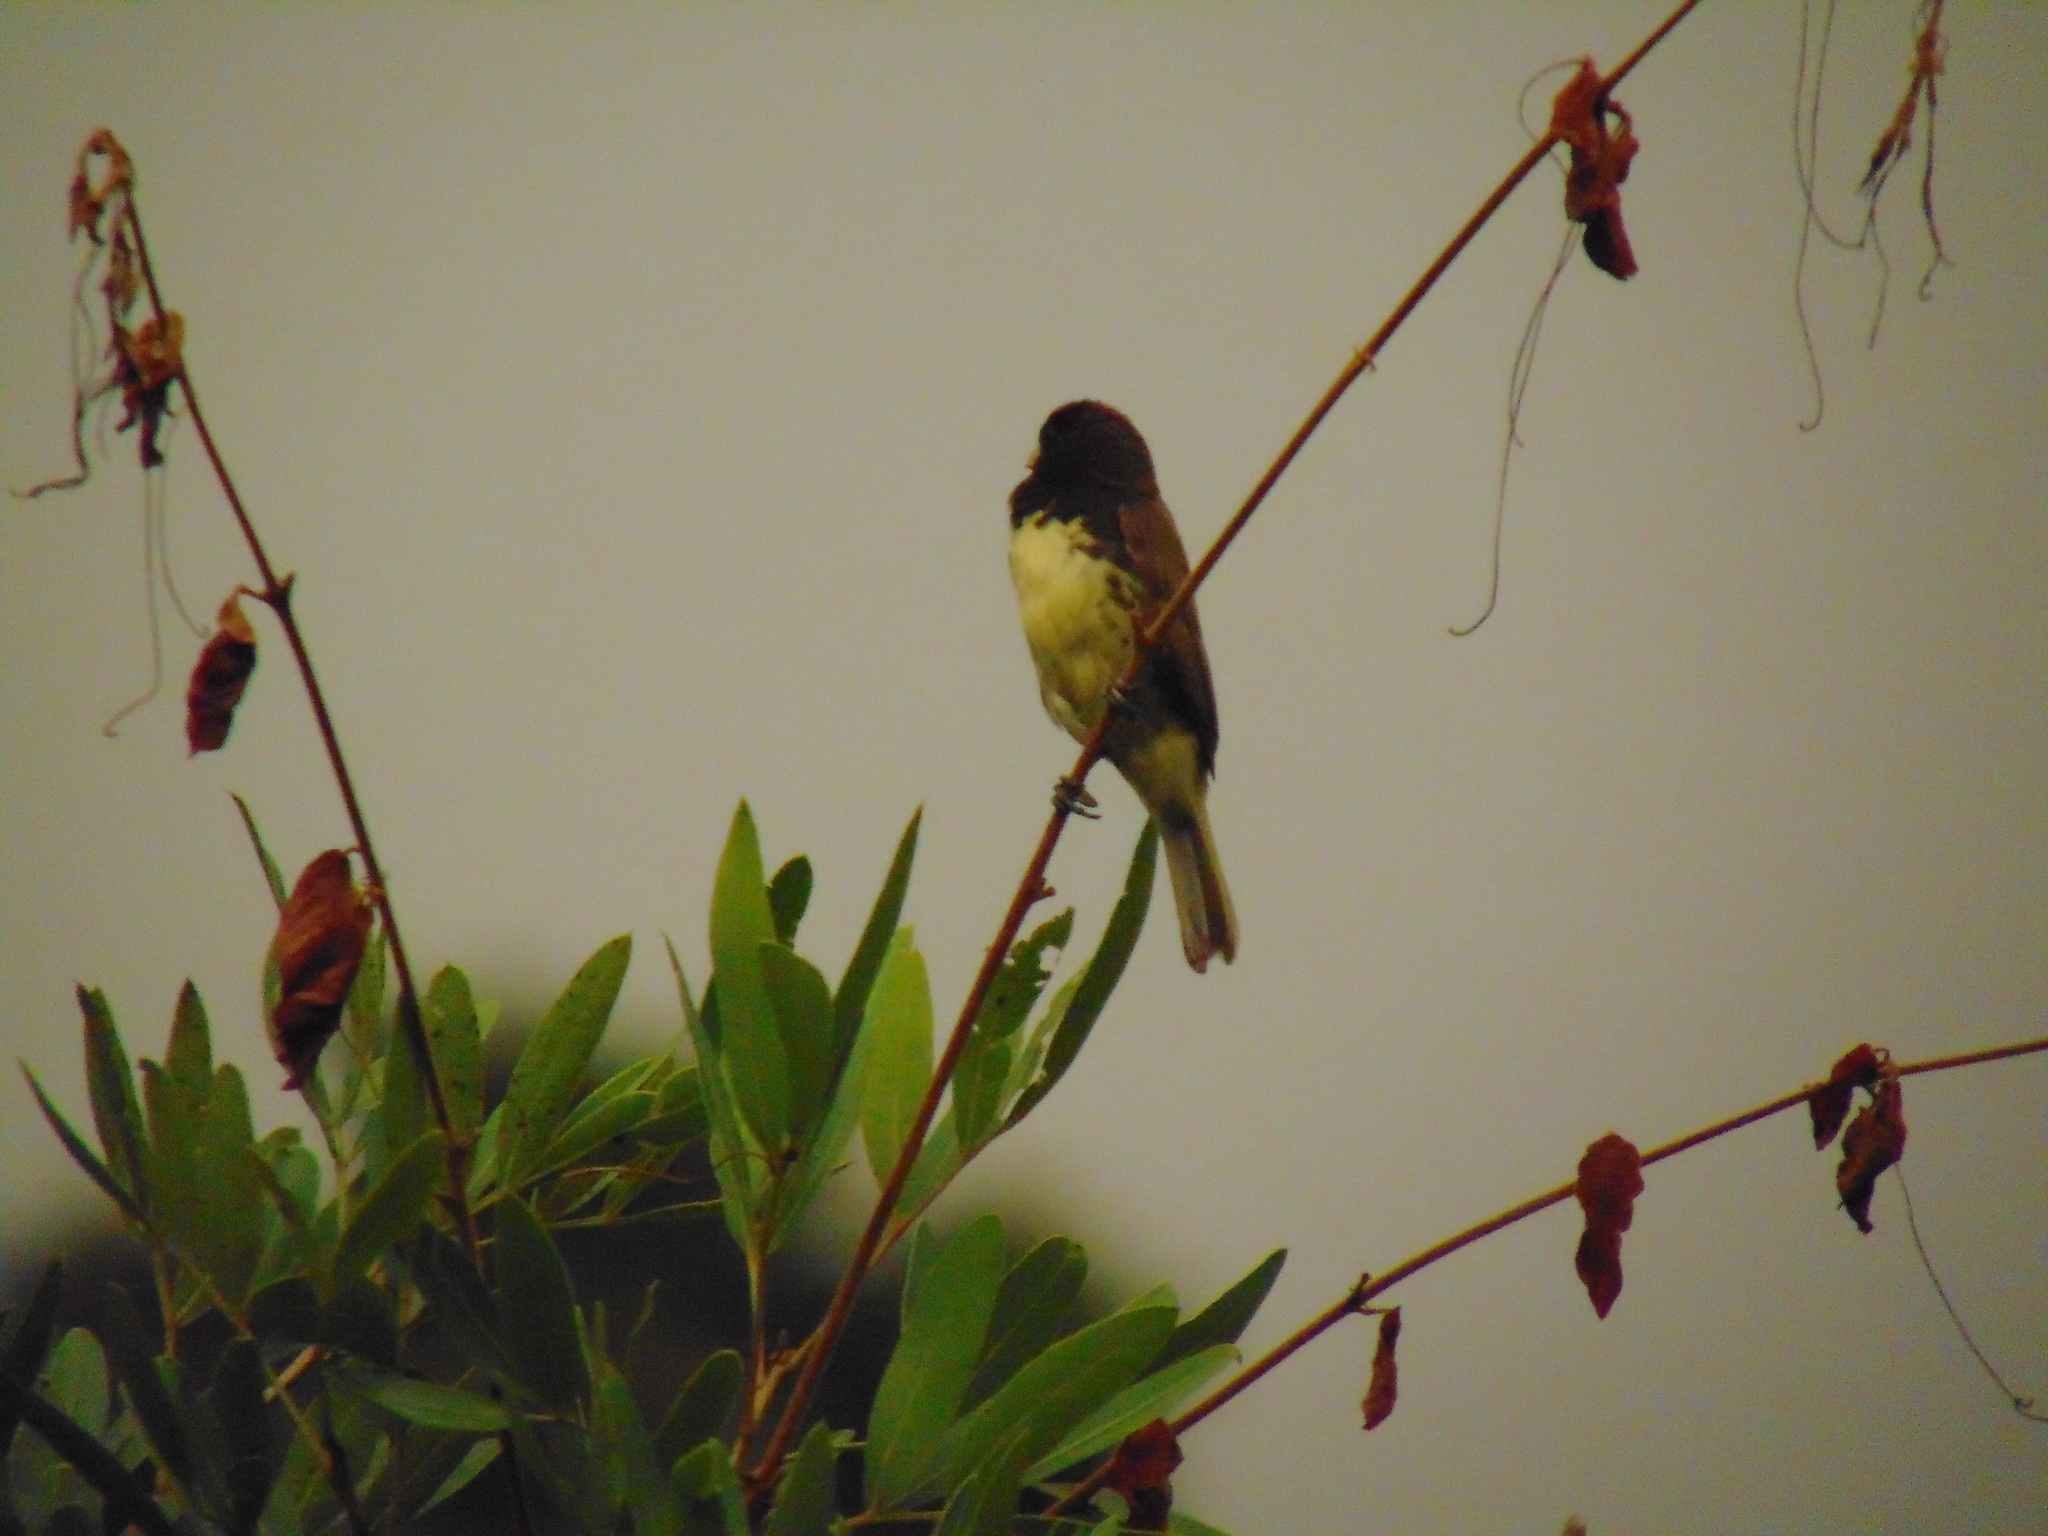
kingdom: Animalia
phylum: Chordata
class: Aves
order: Passeriformes
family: Thraupidae
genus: Sporophila
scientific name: Sporophila nigricollis
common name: Yellow-bellied seedeater
